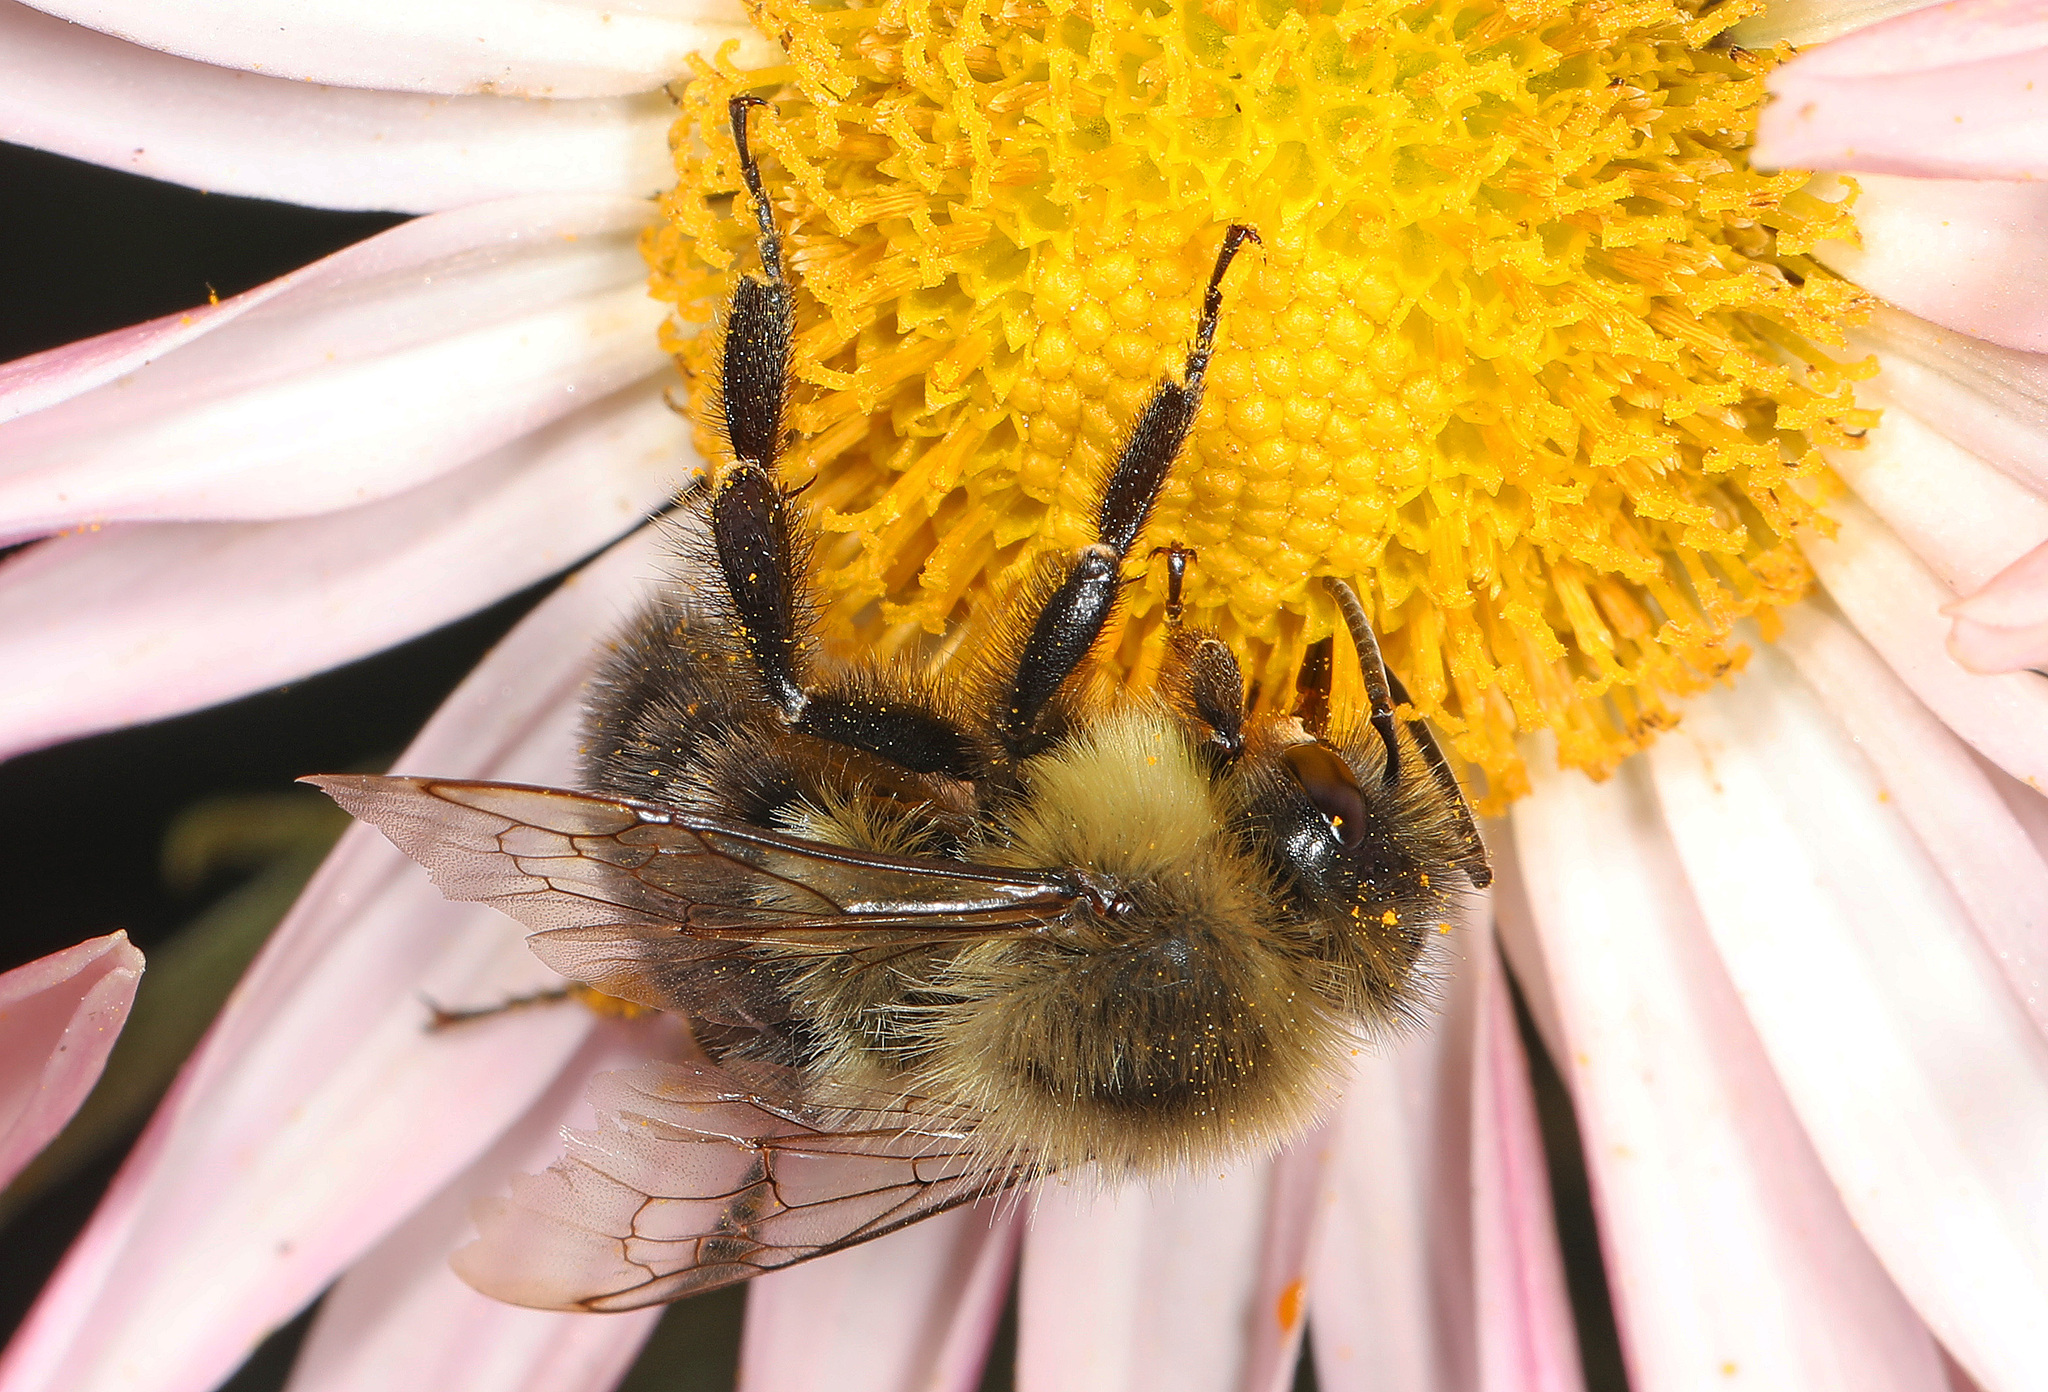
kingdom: Animalia
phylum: Arthropoda
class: Insecta
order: Hymenoptera
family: Apidae
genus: Bombus
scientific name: Bombus impatiens
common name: Common eastern bumble bee
